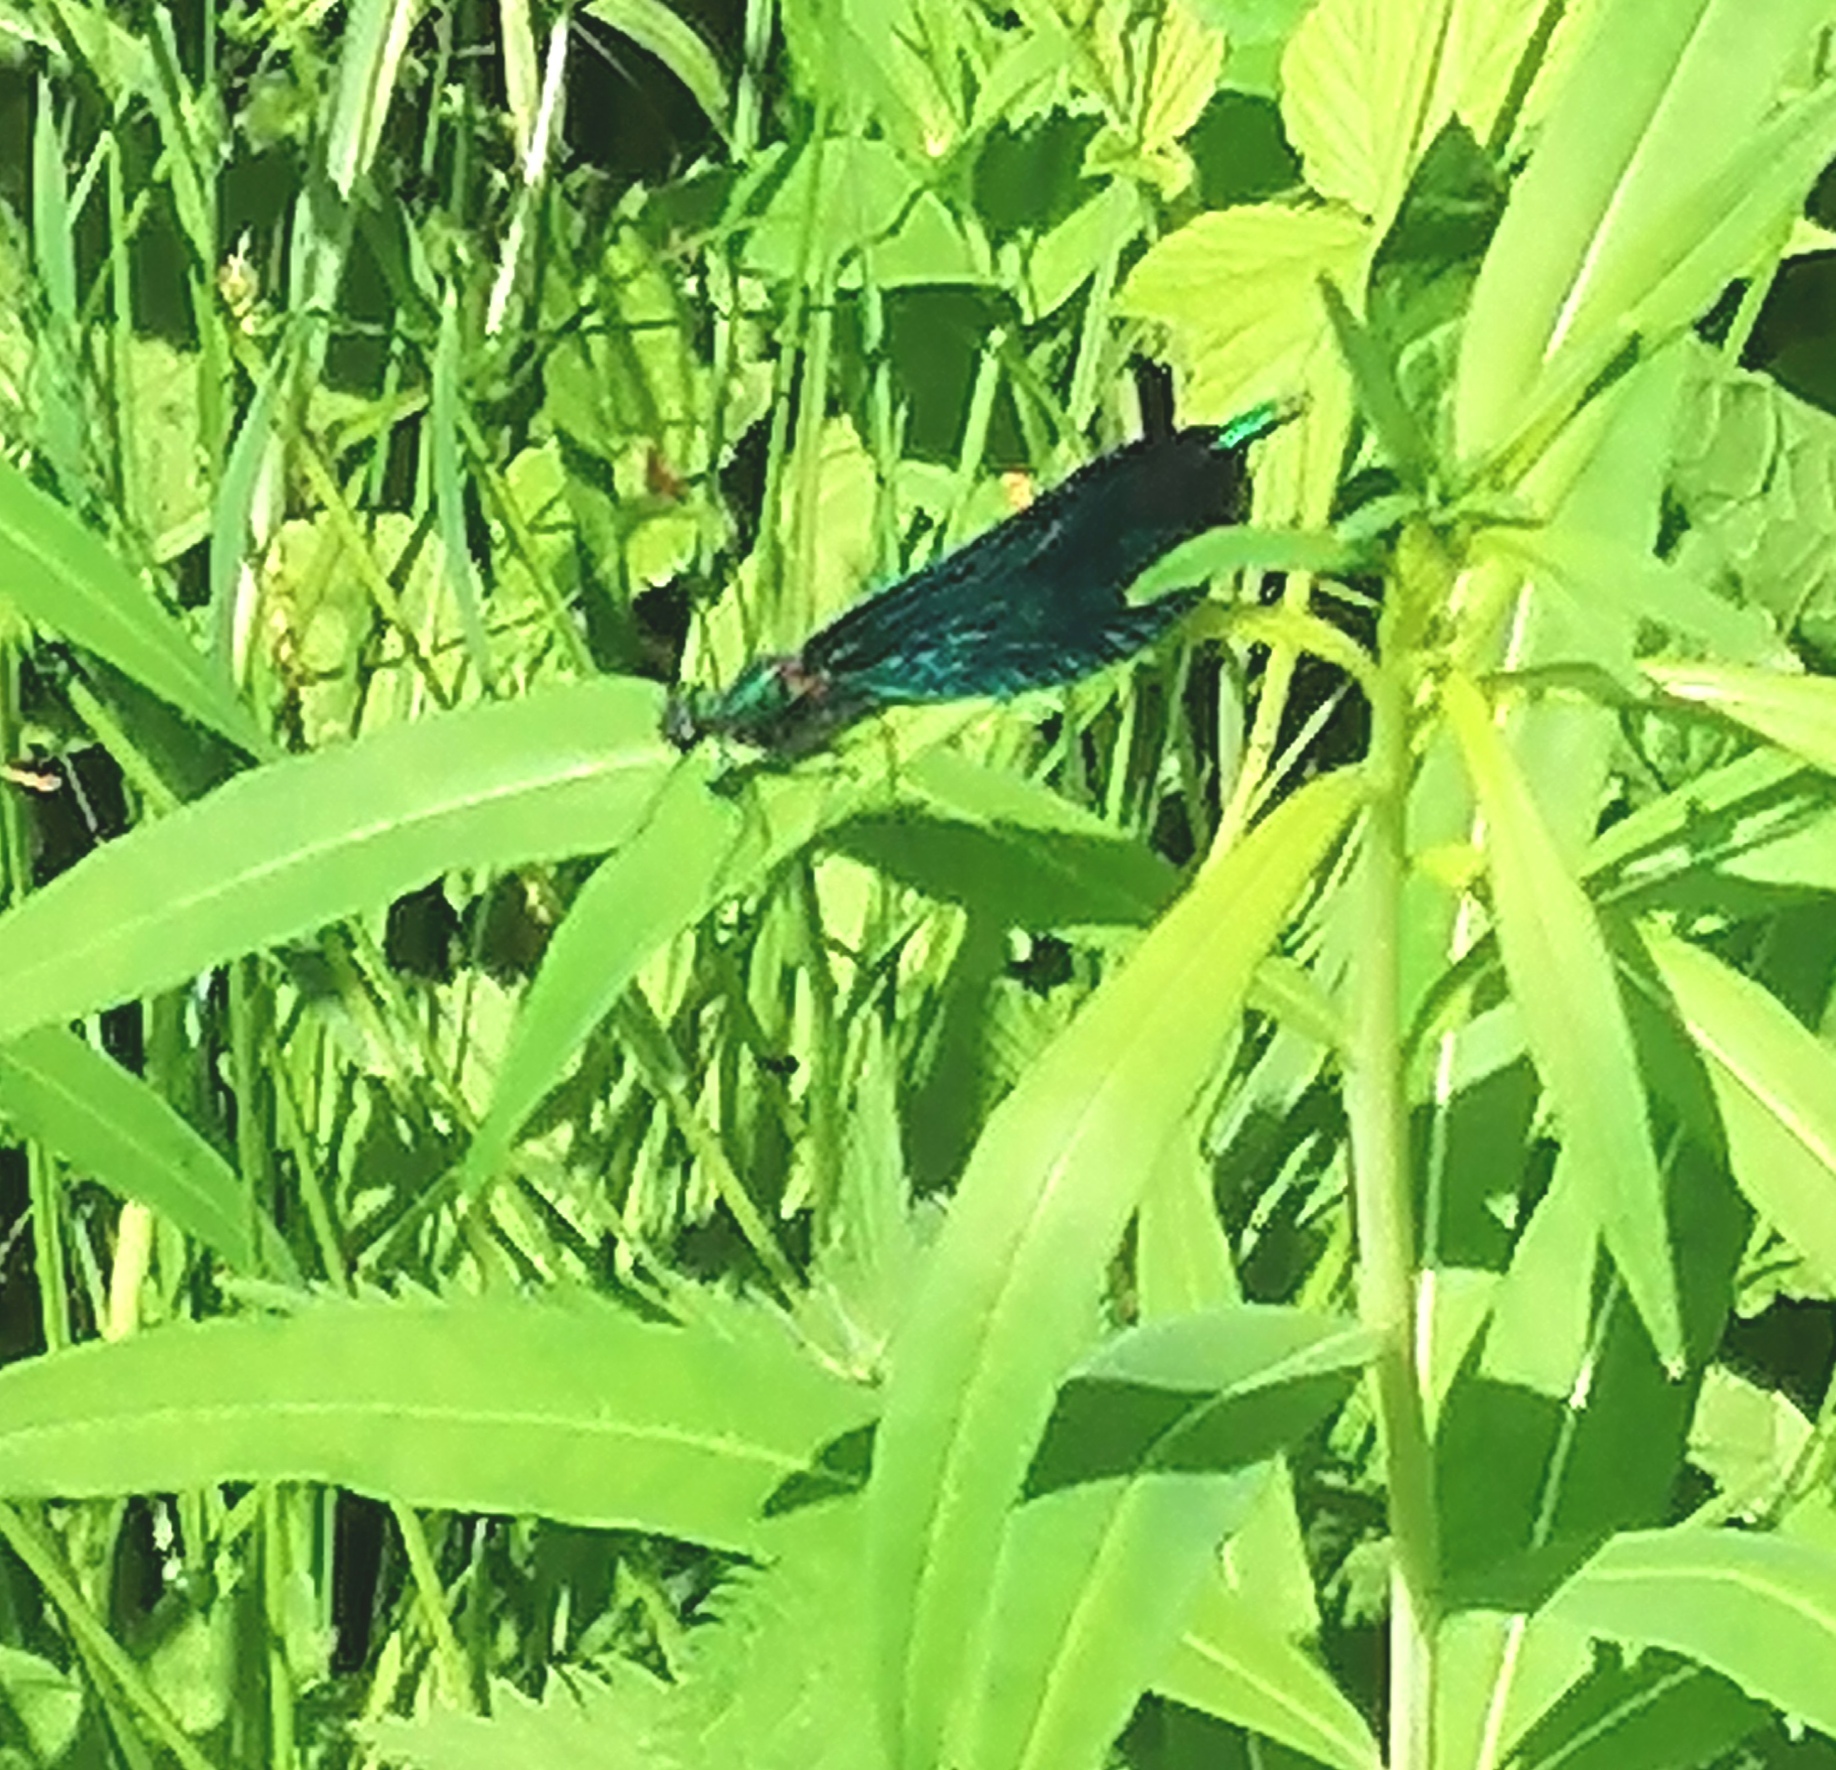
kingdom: Animalia
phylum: Arthropoda
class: Insecta
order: Odonata
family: Calopterygidae
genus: Calopteryx
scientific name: Calopteryx virgo
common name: Beautiful demoiselle
